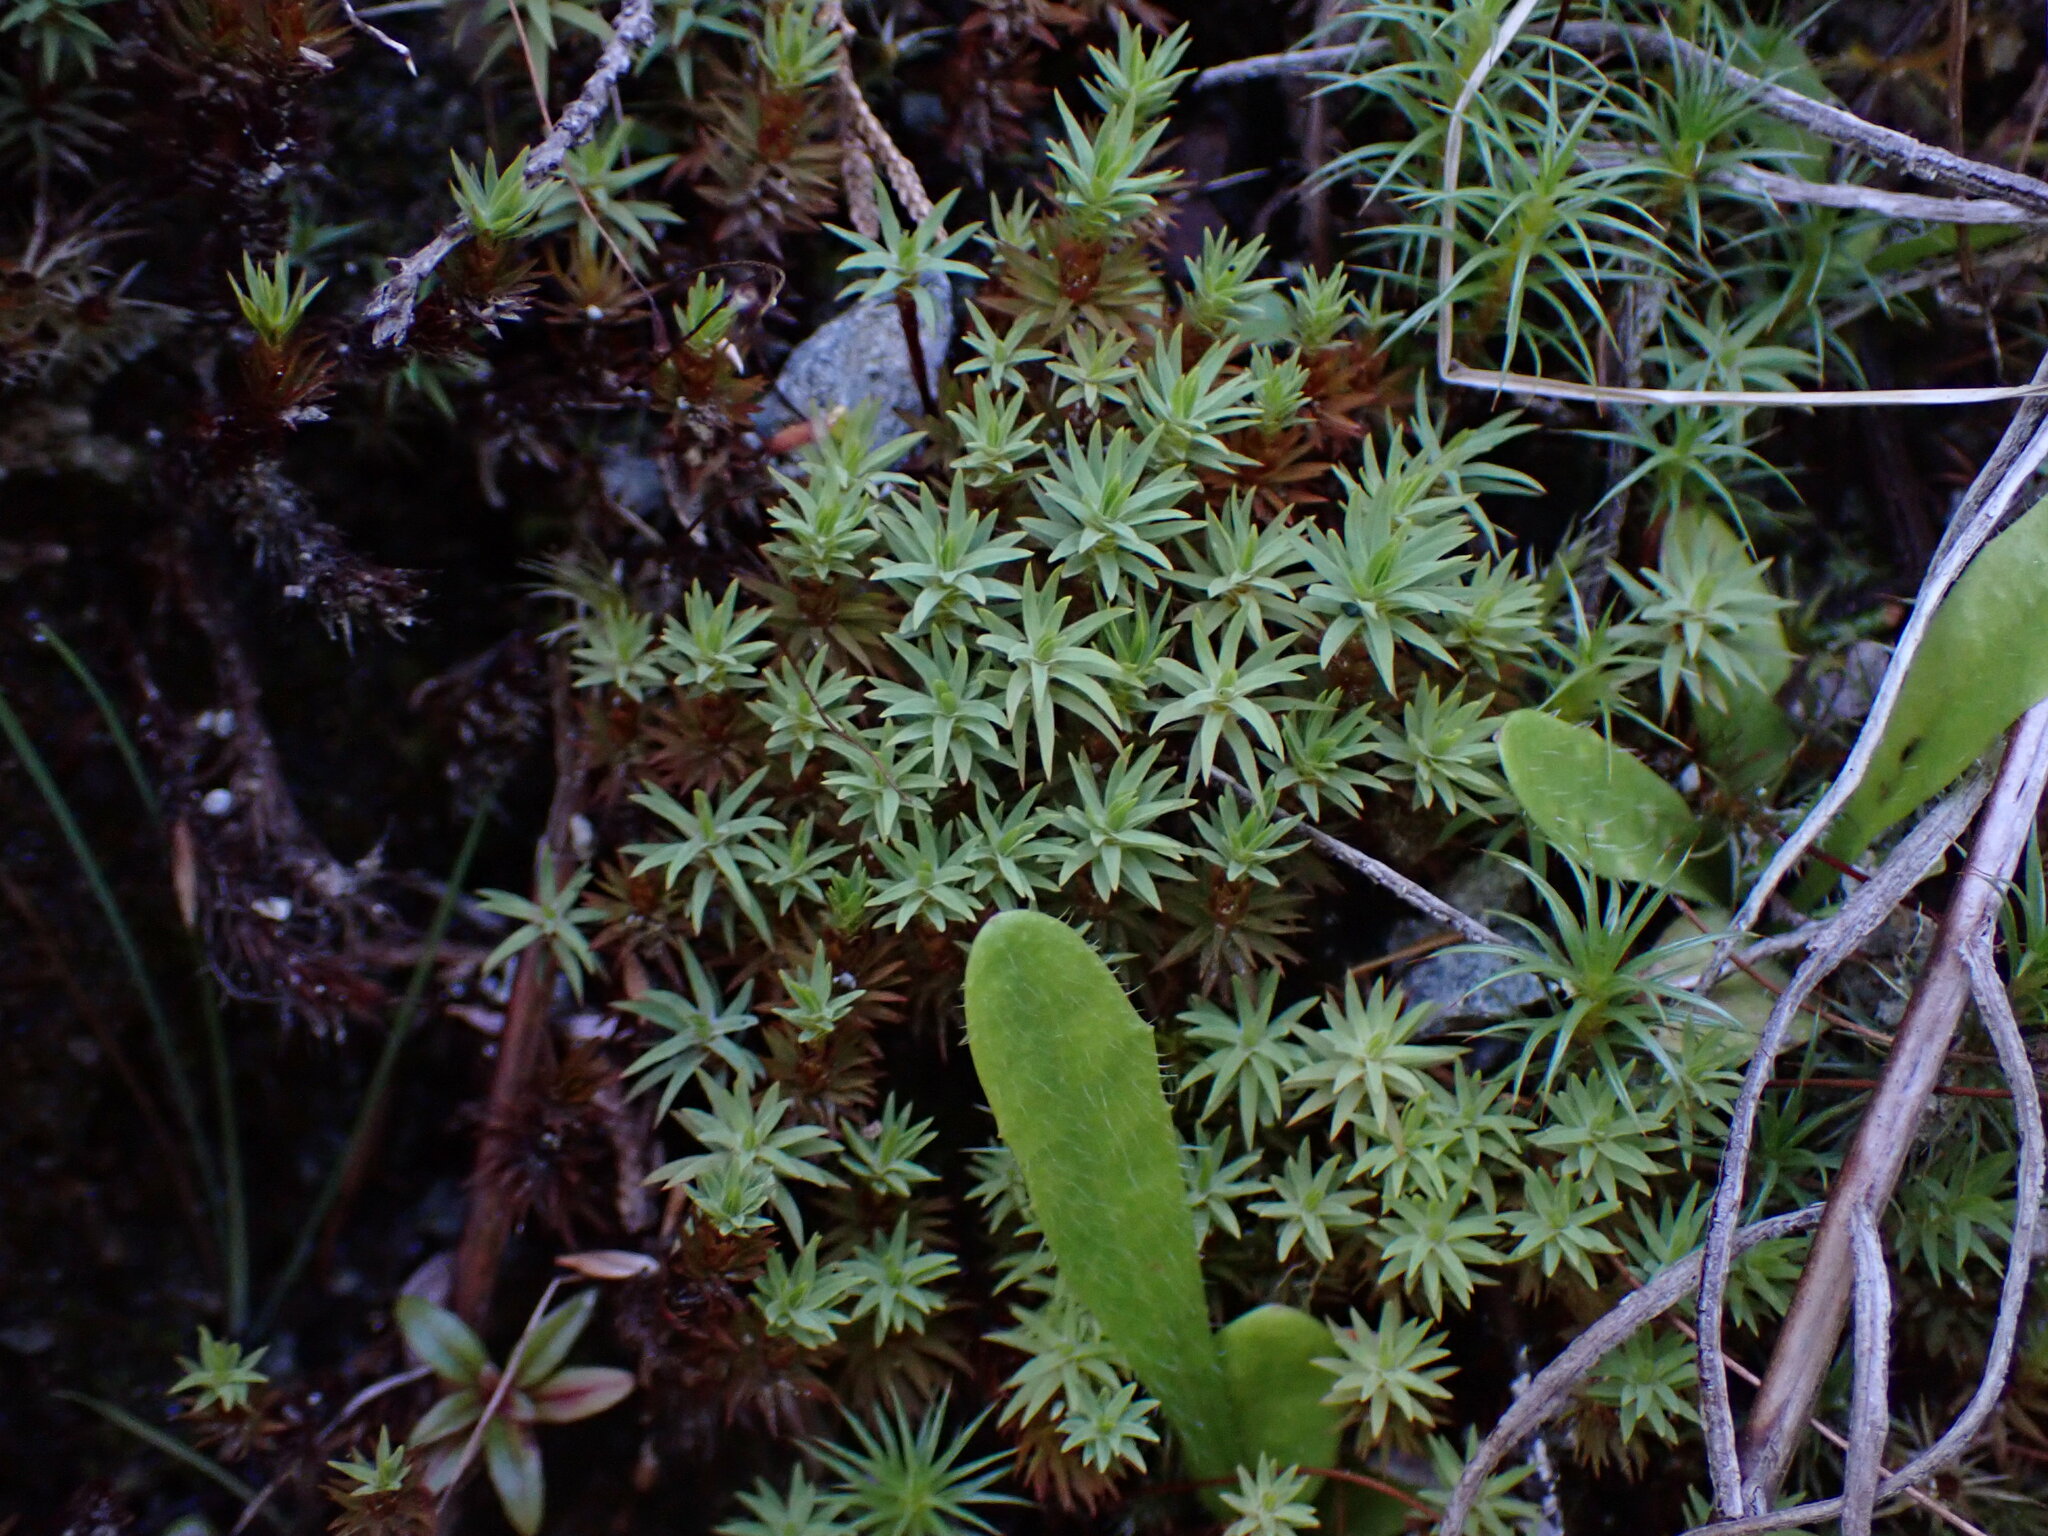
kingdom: Plantae
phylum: Bryophyta
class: Polytrichopsida
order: Polytrichales
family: Polytrichaceae
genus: Pogonatum
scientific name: Pogonatum urnigerum
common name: Urn hair moss
